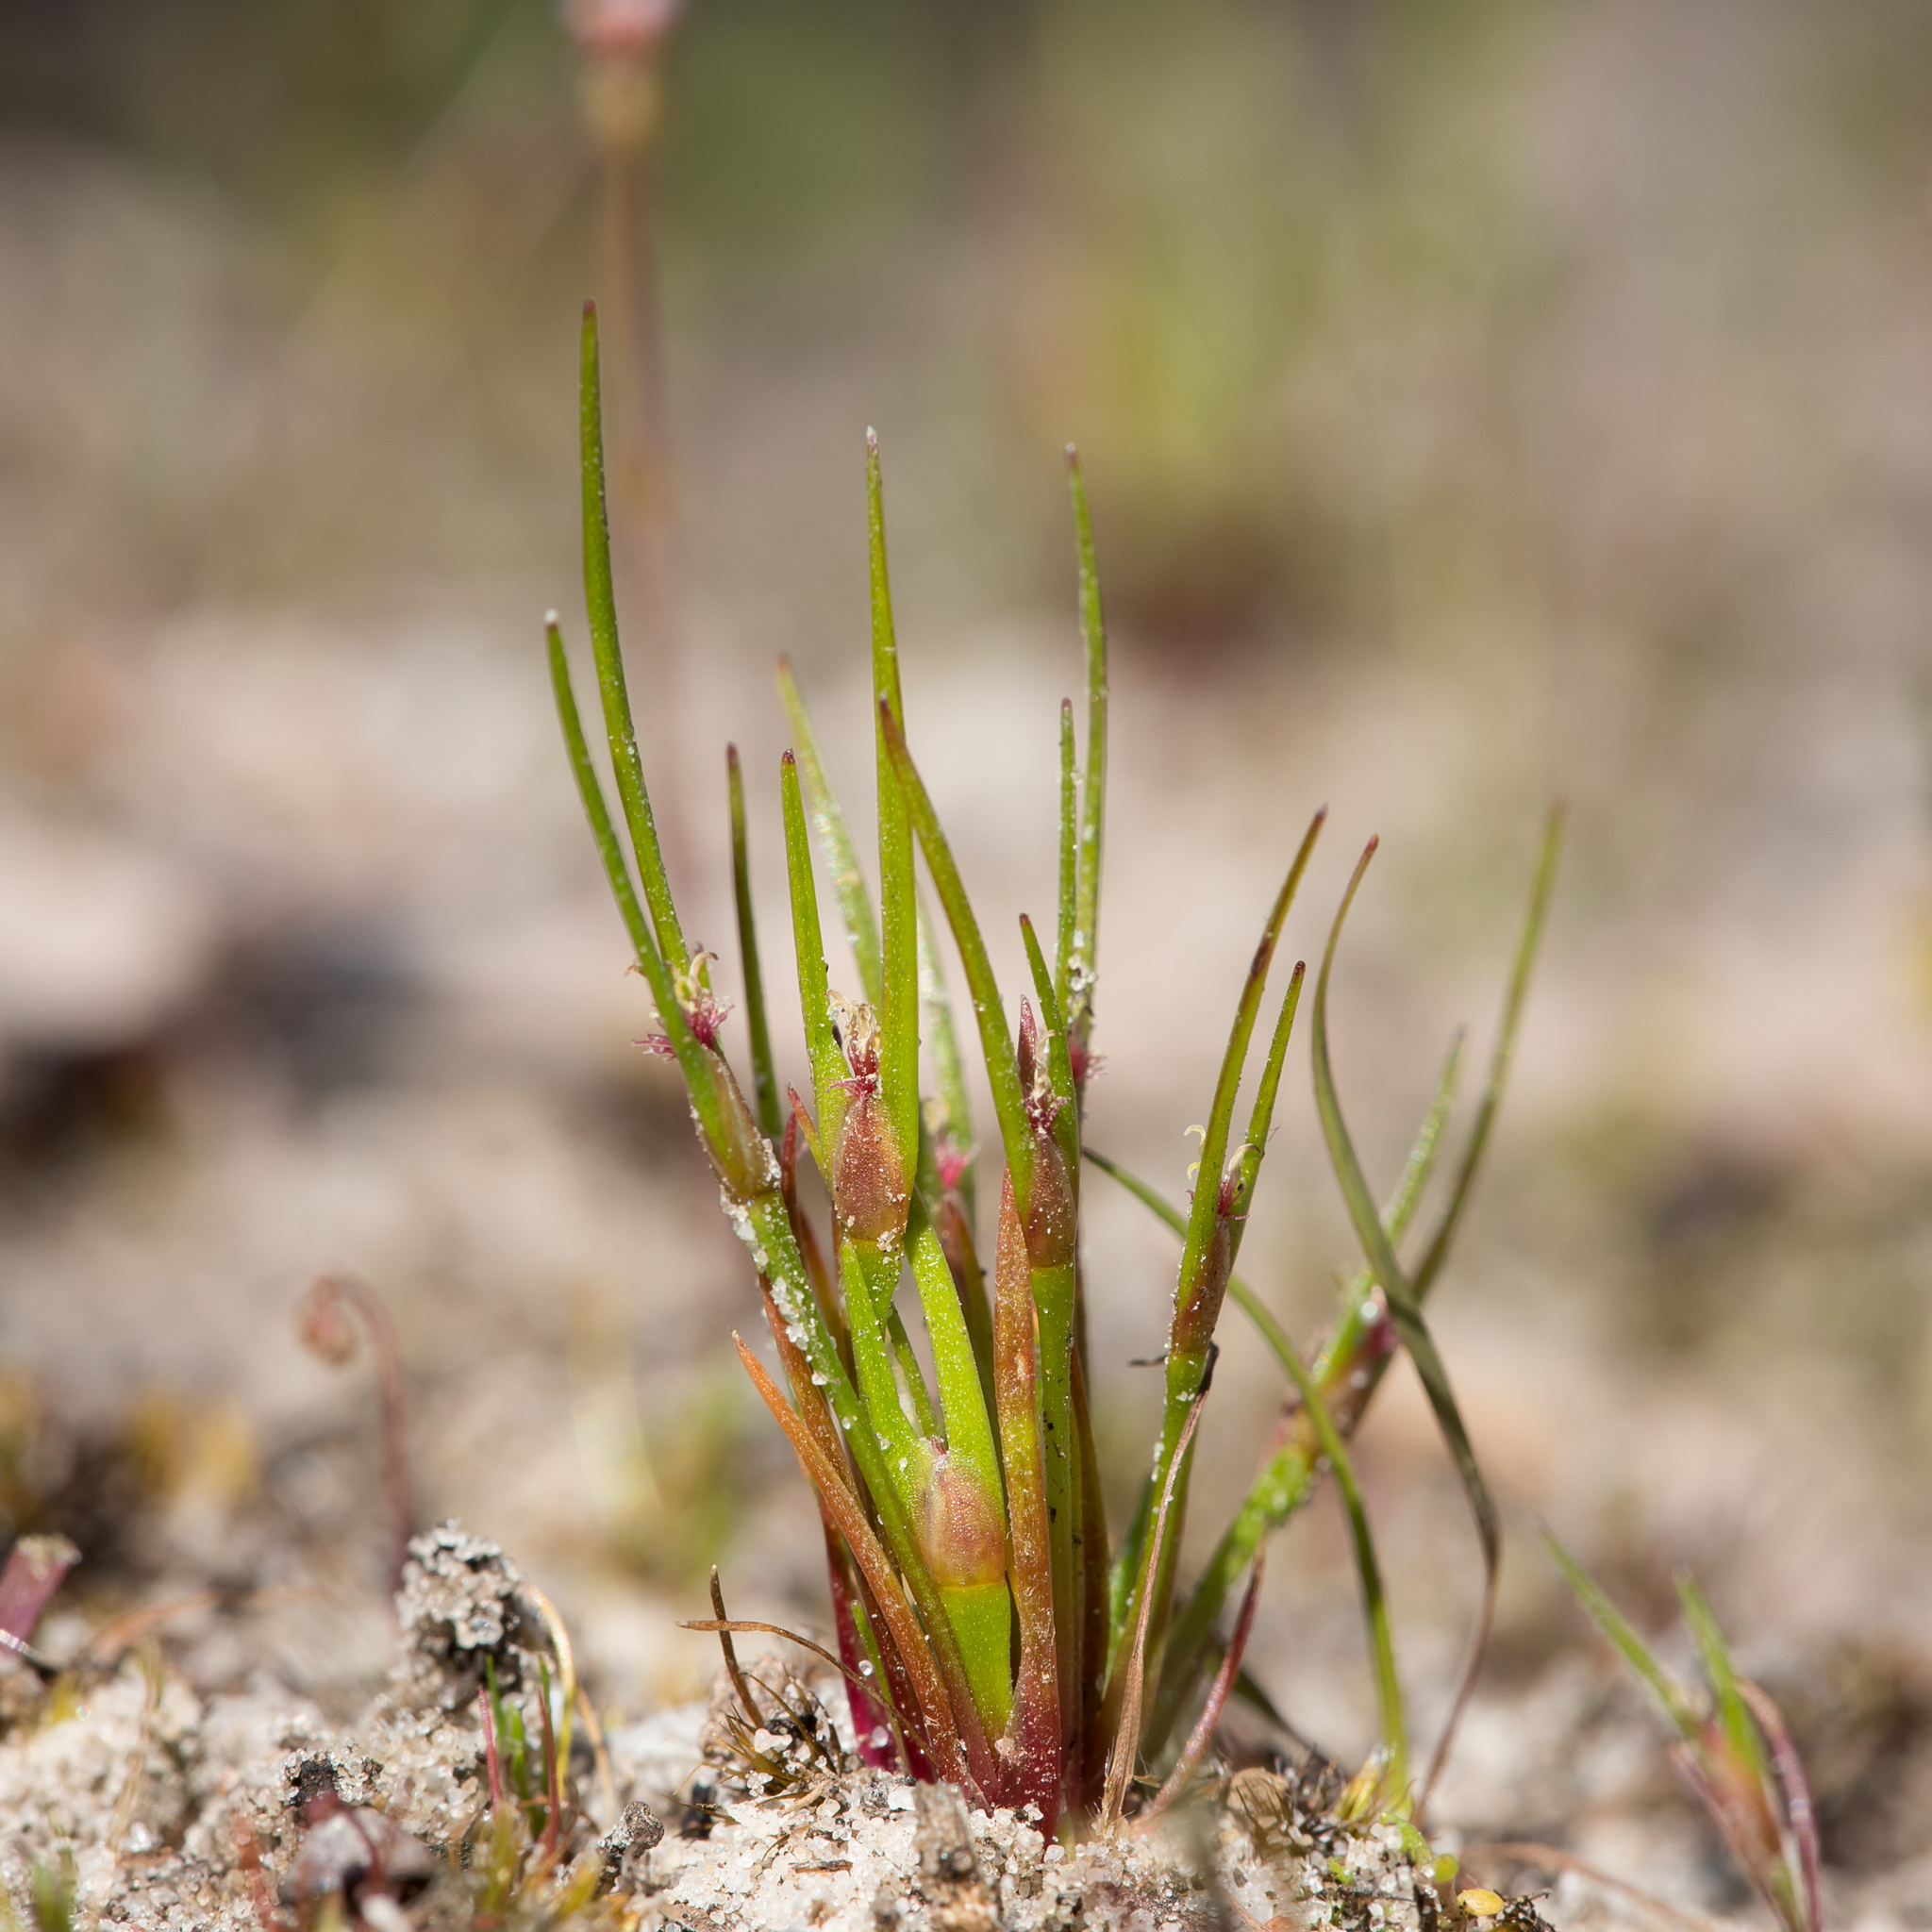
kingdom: Plantae
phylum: Tracheophyta
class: Liliopsida
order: Poales
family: Restionaceae
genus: Centrolepis
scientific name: Centrolepis aristata
